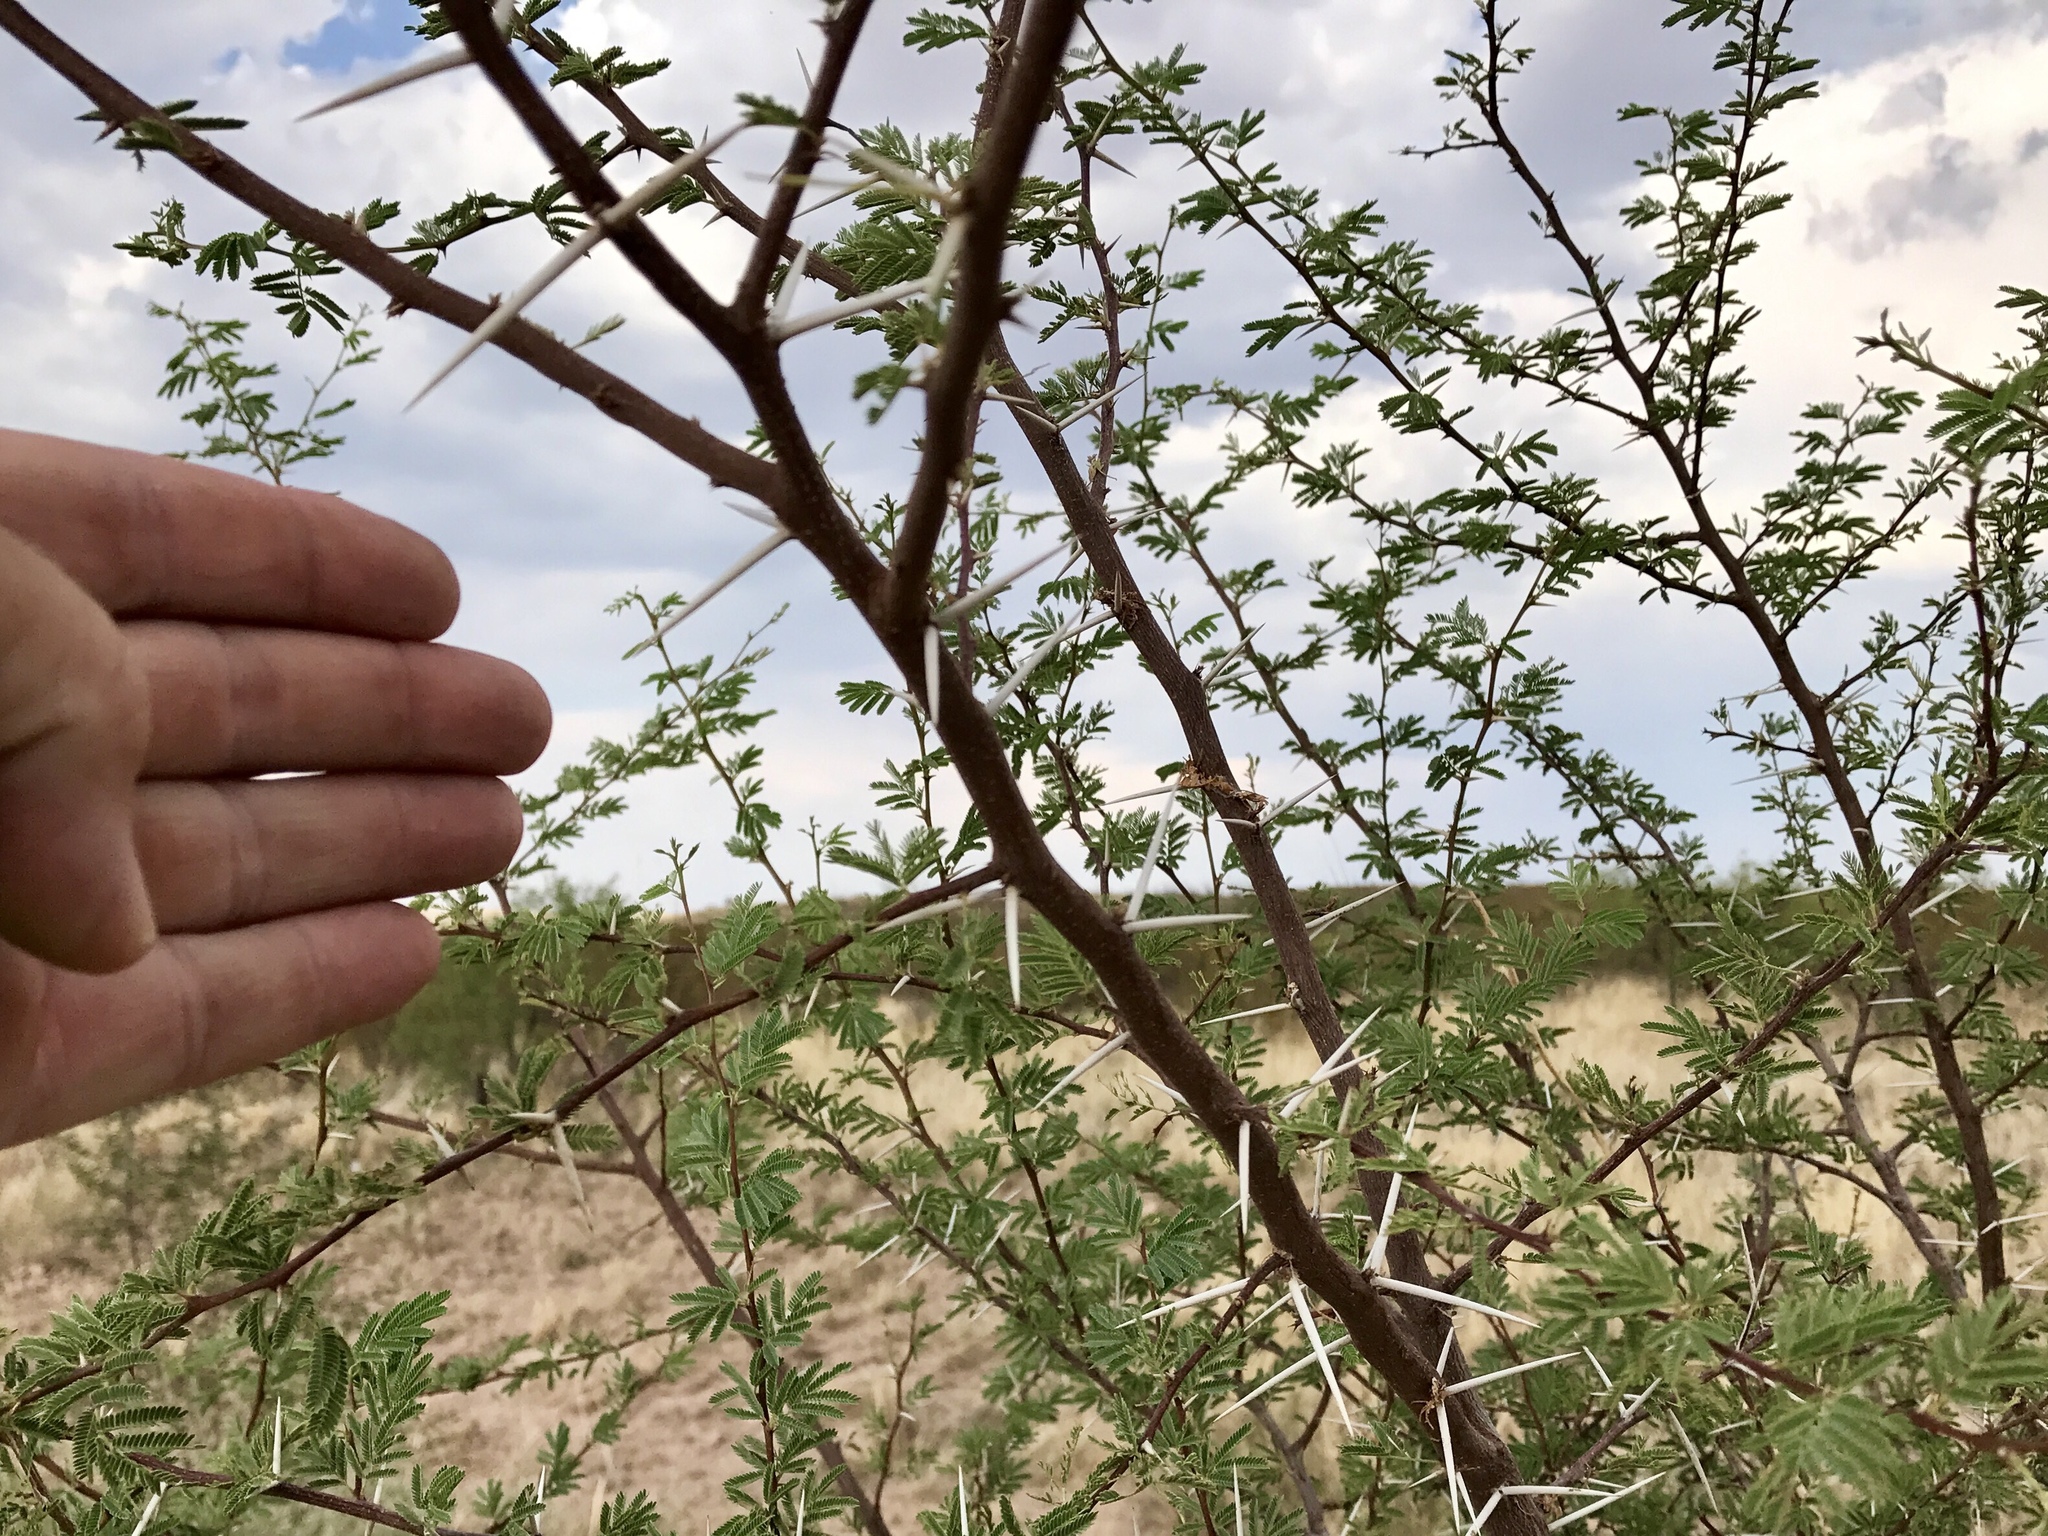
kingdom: Plantae
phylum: Tracheophyta
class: Magnoliopsida
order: Fabales
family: Fabaceae
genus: Vachellia
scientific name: Vachellia constricta
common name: Mescat acacia
